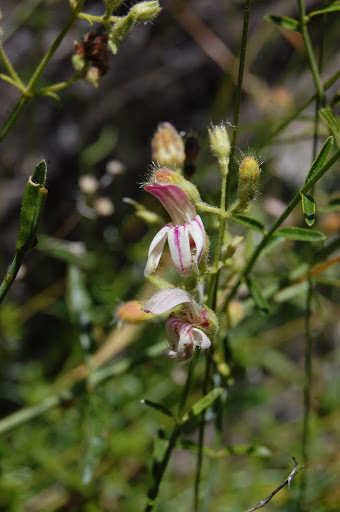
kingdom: Plantae
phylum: Tracheophyta
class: Magnoliopsida
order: Lamiales
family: Plantaginaceae
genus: Keckiella
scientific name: Keckiella breviflora
